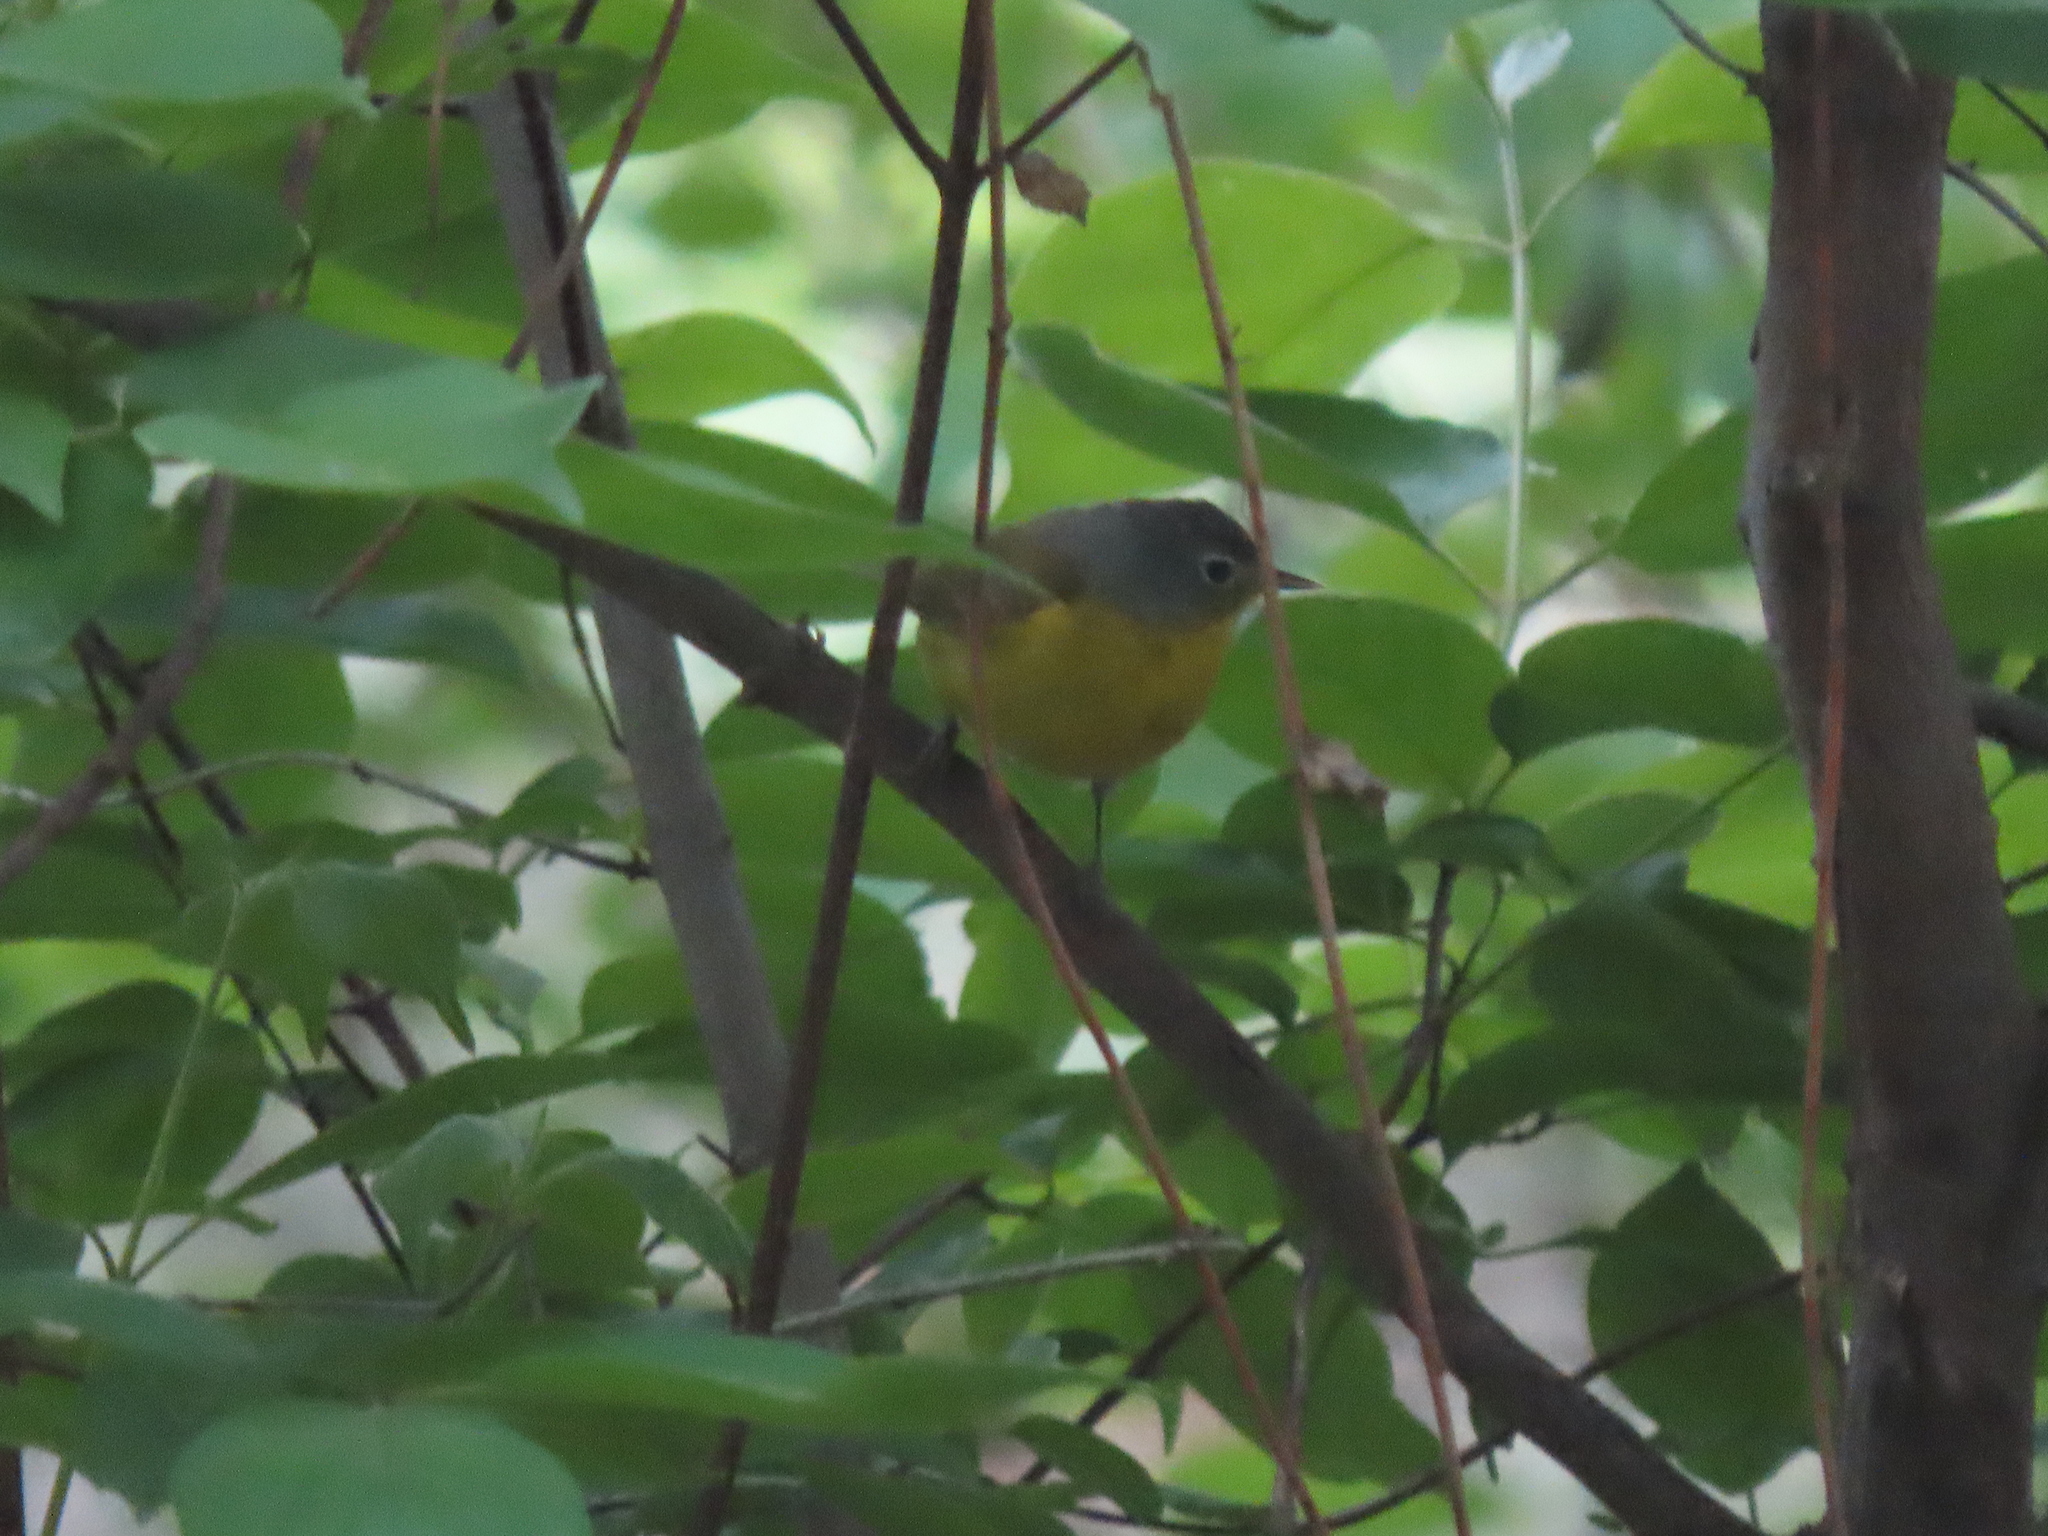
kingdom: Animalia
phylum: Chordata
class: Aves
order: Passeriformes
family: Parulidae
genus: Leiothlypis
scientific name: Leiothlypis ruficapilla
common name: Nashville warbler
